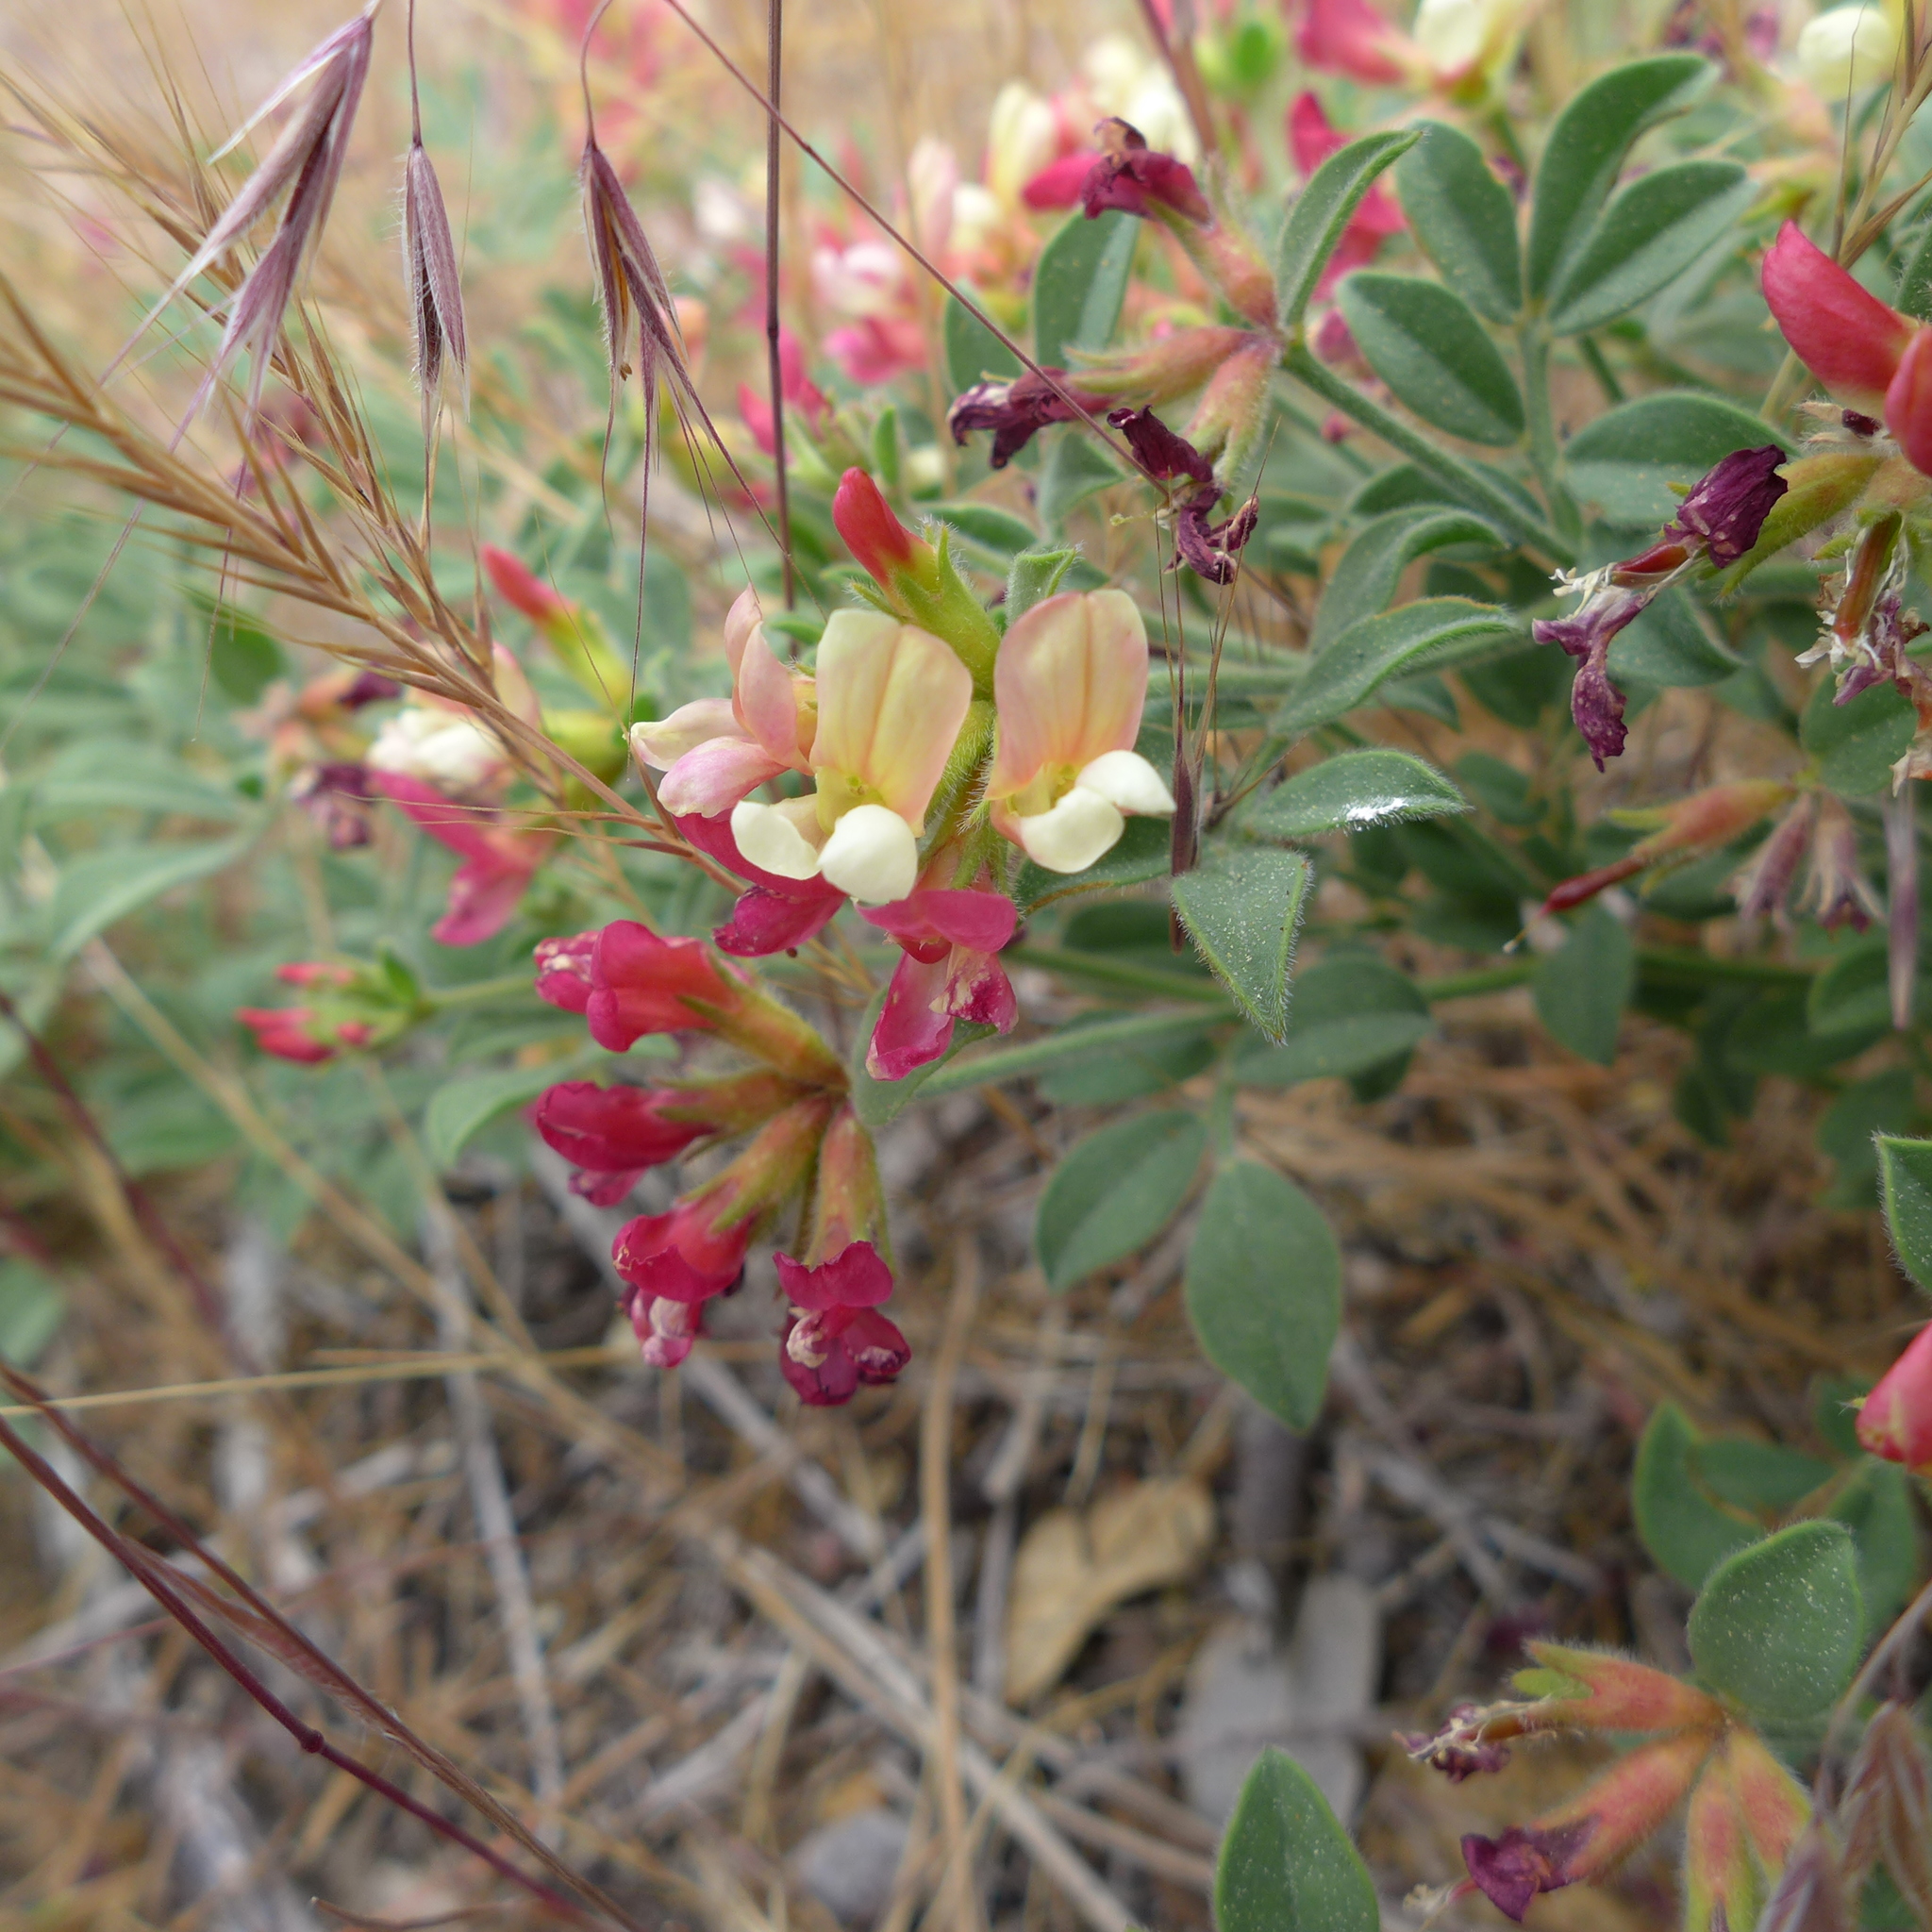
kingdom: Plantae
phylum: Tracheophyta
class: Magnoliopsida
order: Fabales
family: Fabaceae
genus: Acmispon
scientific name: Acmispon grandiflorus
